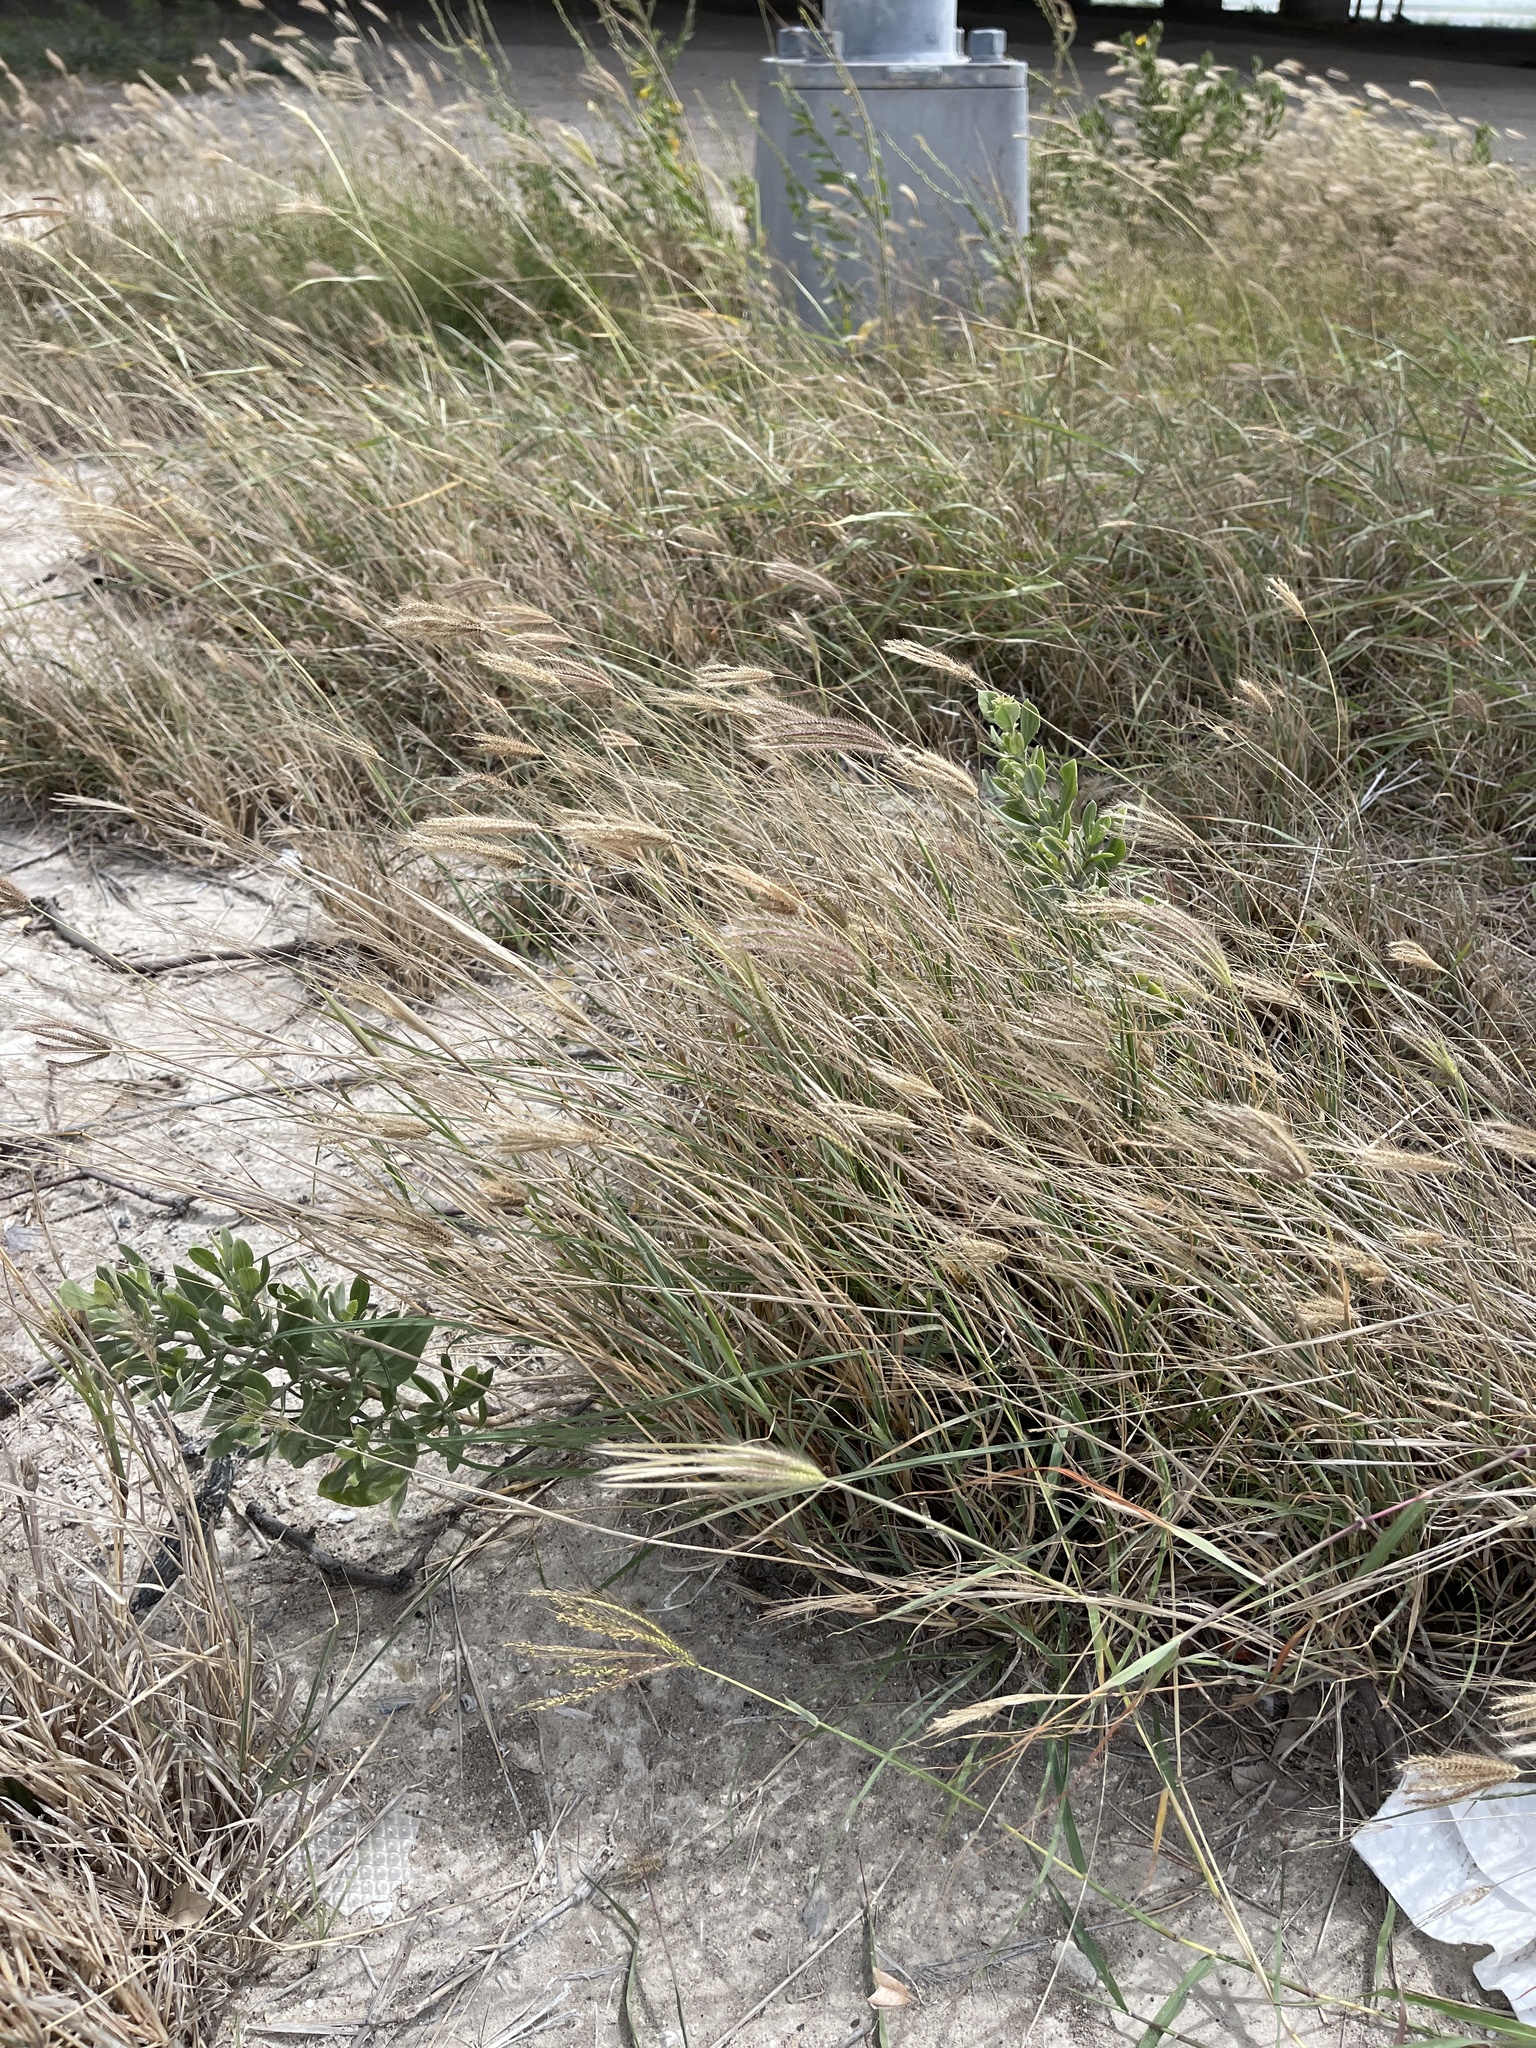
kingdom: Plantae
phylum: Tracheophyta
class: Liliopsida
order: Poales
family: Poaceae
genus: Chloris
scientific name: Chloris virgata
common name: Feathery rhodes-grass
